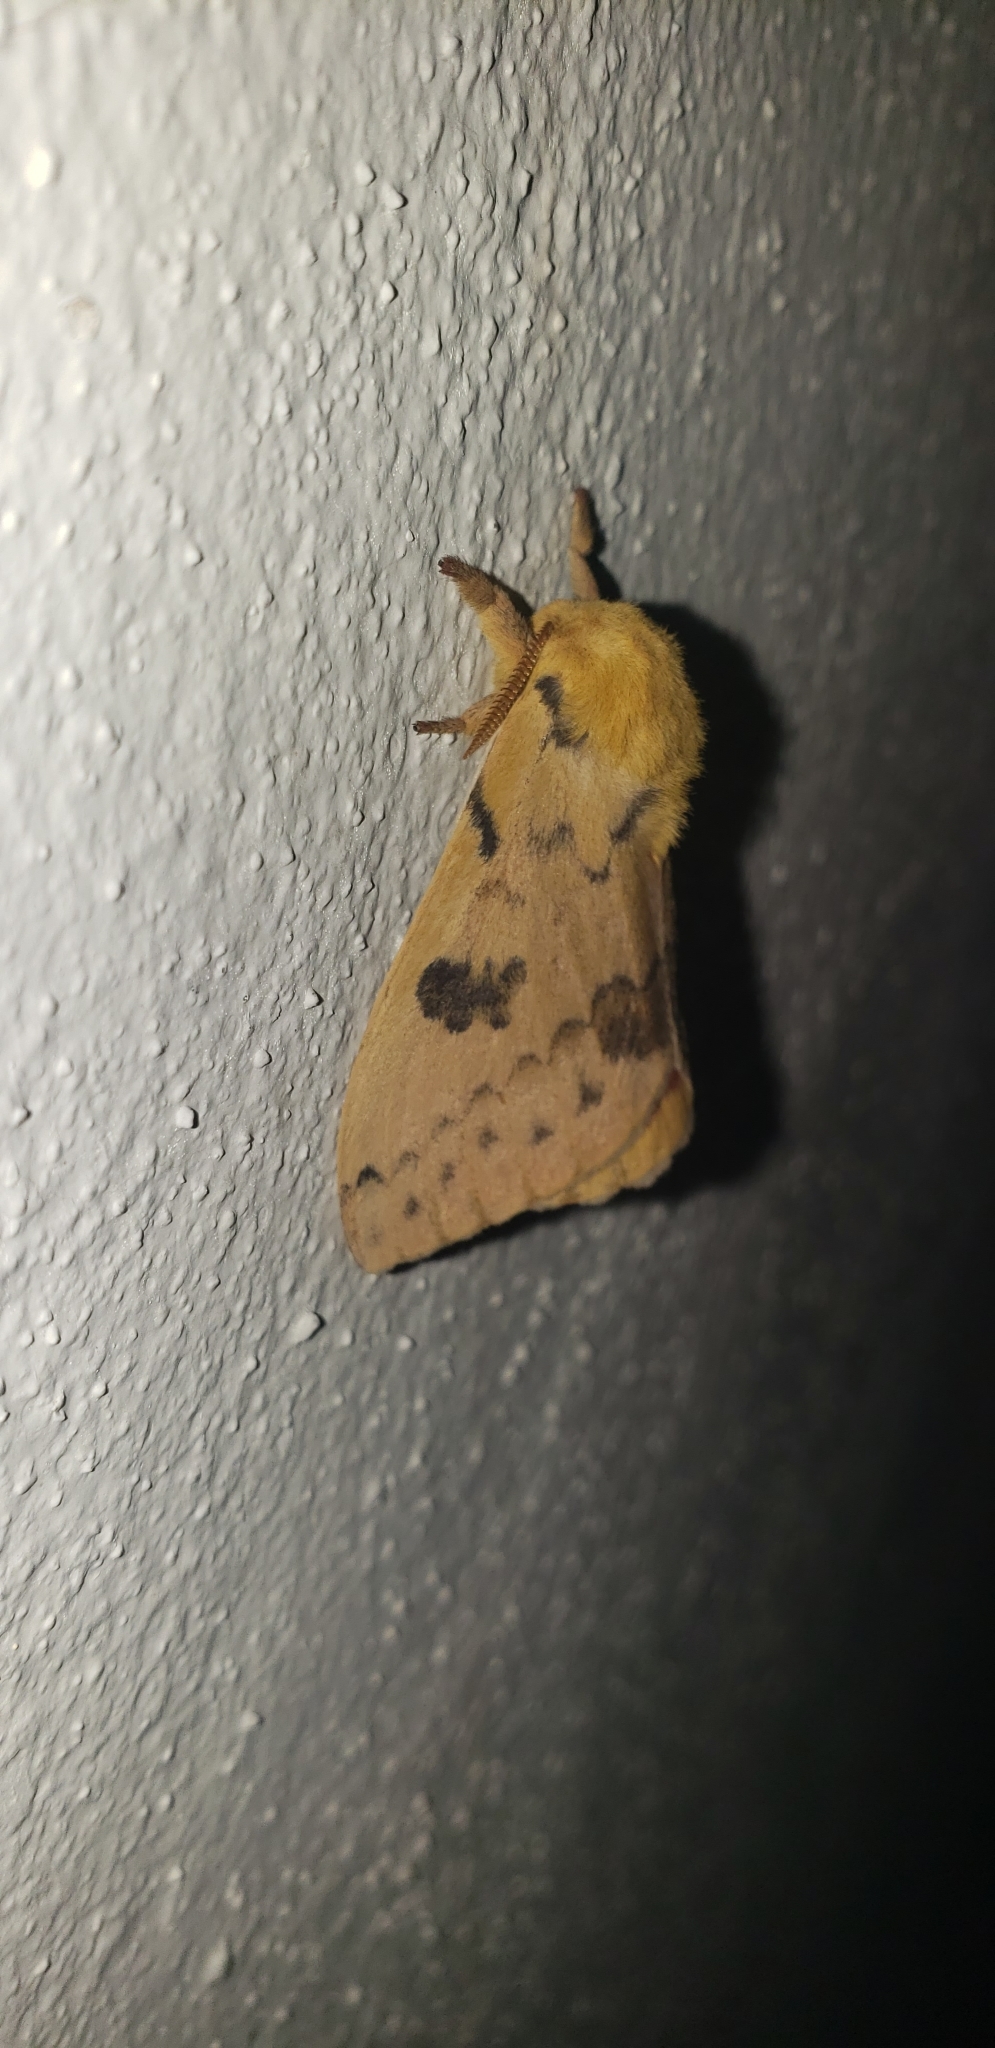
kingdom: Animalia
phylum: Arthropoda
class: Insecta
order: Lepidoptera
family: Saturniidae
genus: Automeris
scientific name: Automeris io
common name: Io moth
